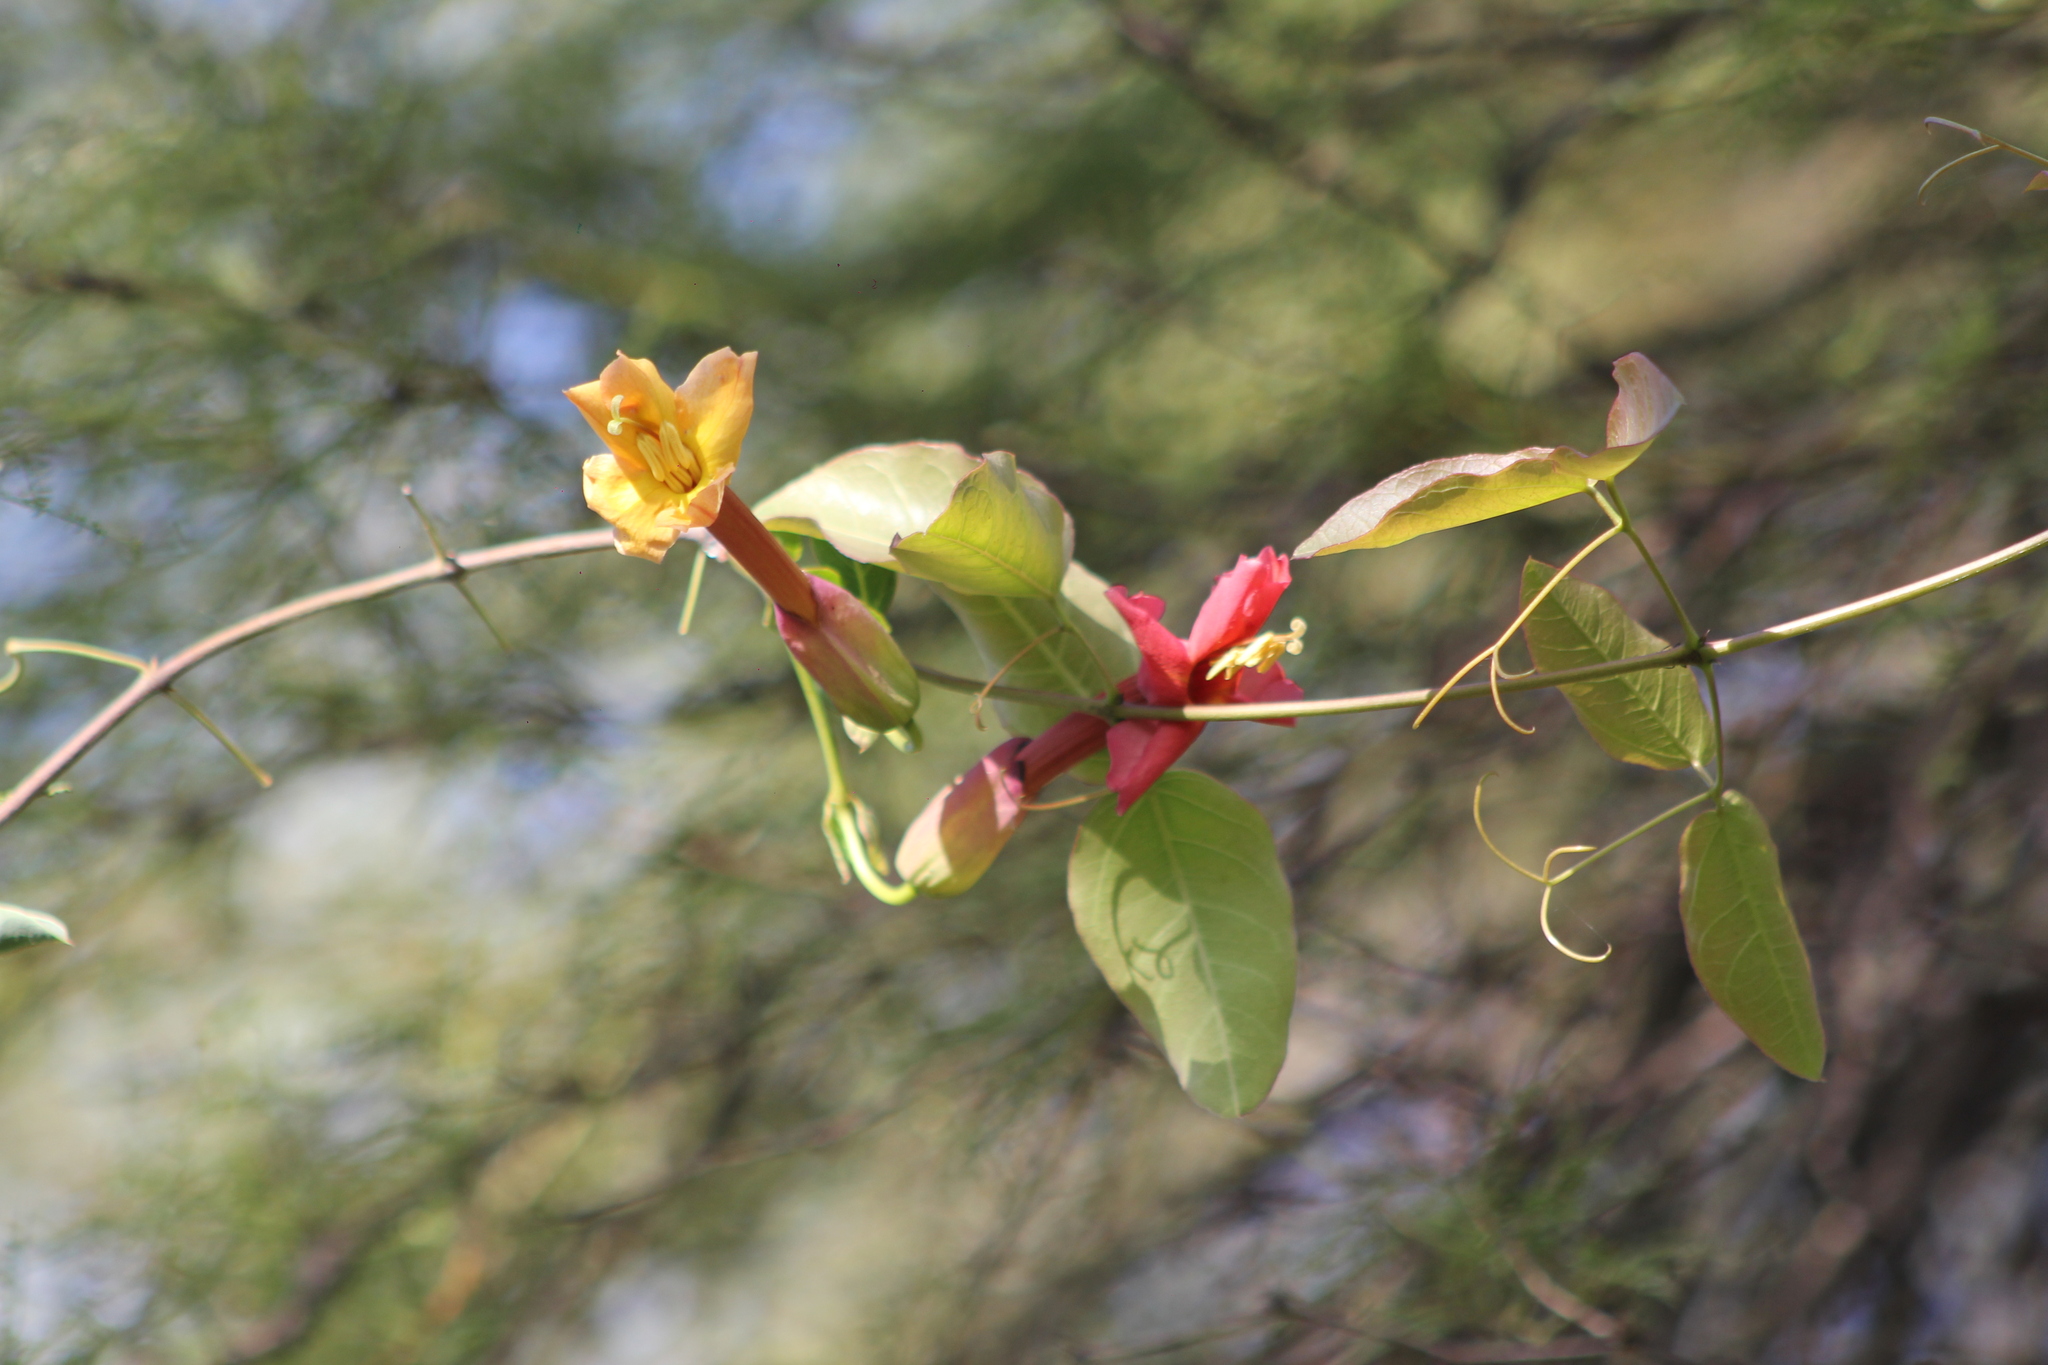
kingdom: Plantae
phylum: Tracheophyta
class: Magnoliopsida
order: Lamiales
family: Bignoniaceae
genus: Dolichandra
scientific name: Dolichandra cynanchoides
